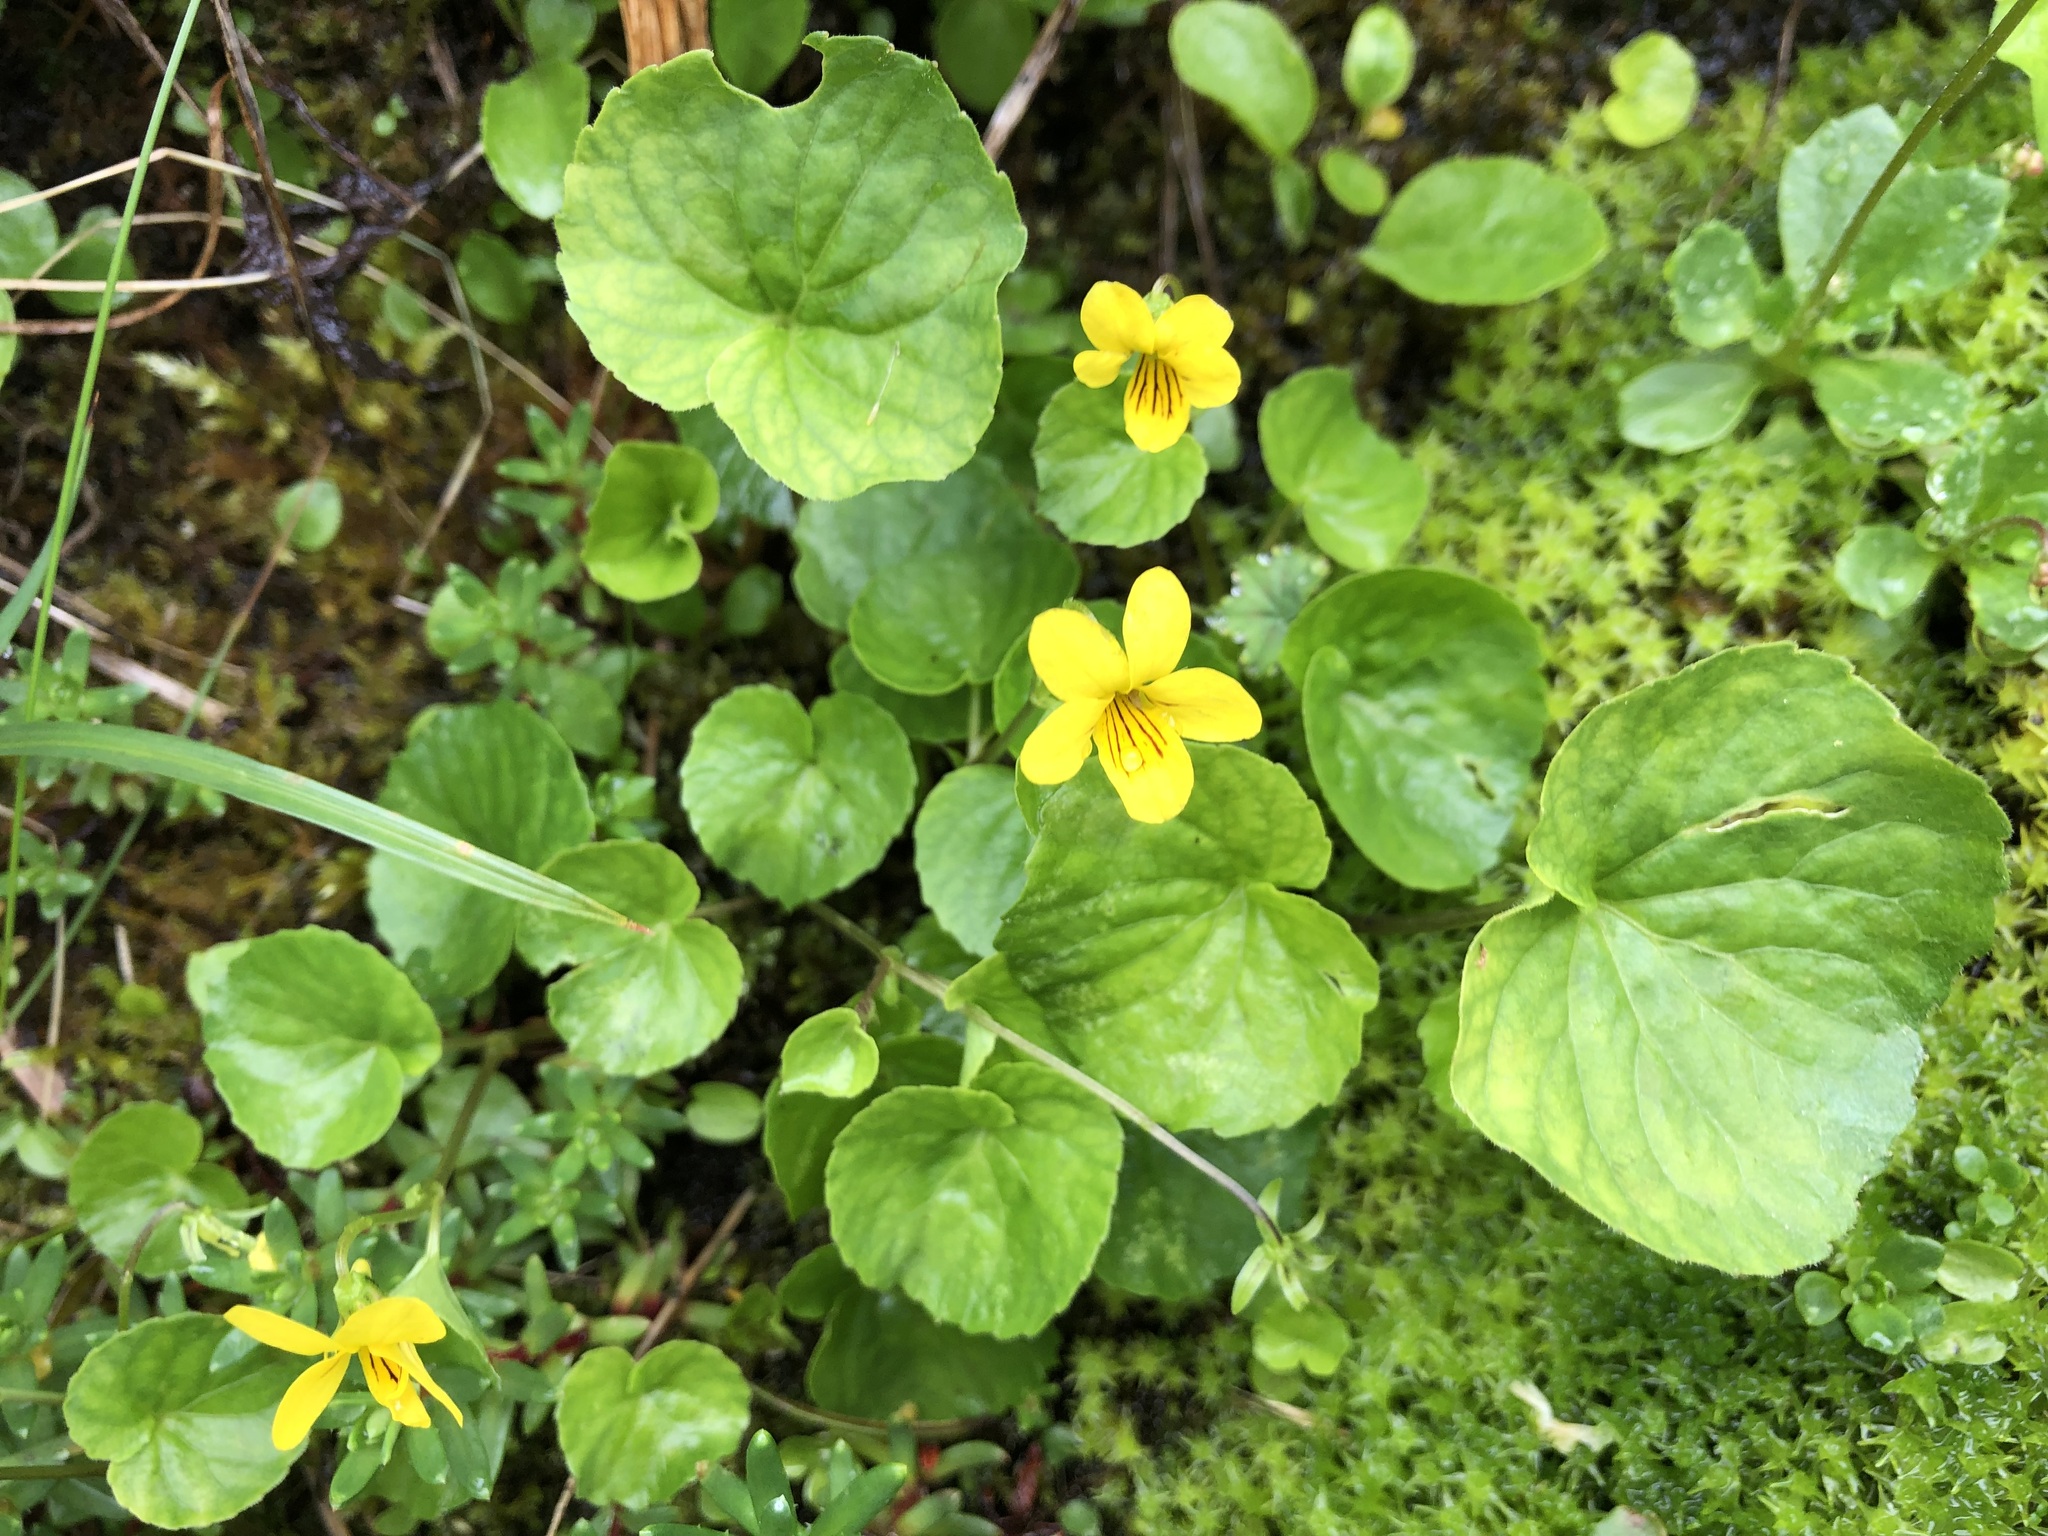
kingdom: Plantae
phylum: Tracheophyta
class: Magnoliopsida
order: Malpighiales
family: Violaceae
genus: Viola
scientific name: Viola biflora
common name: Alpine yellow violet
